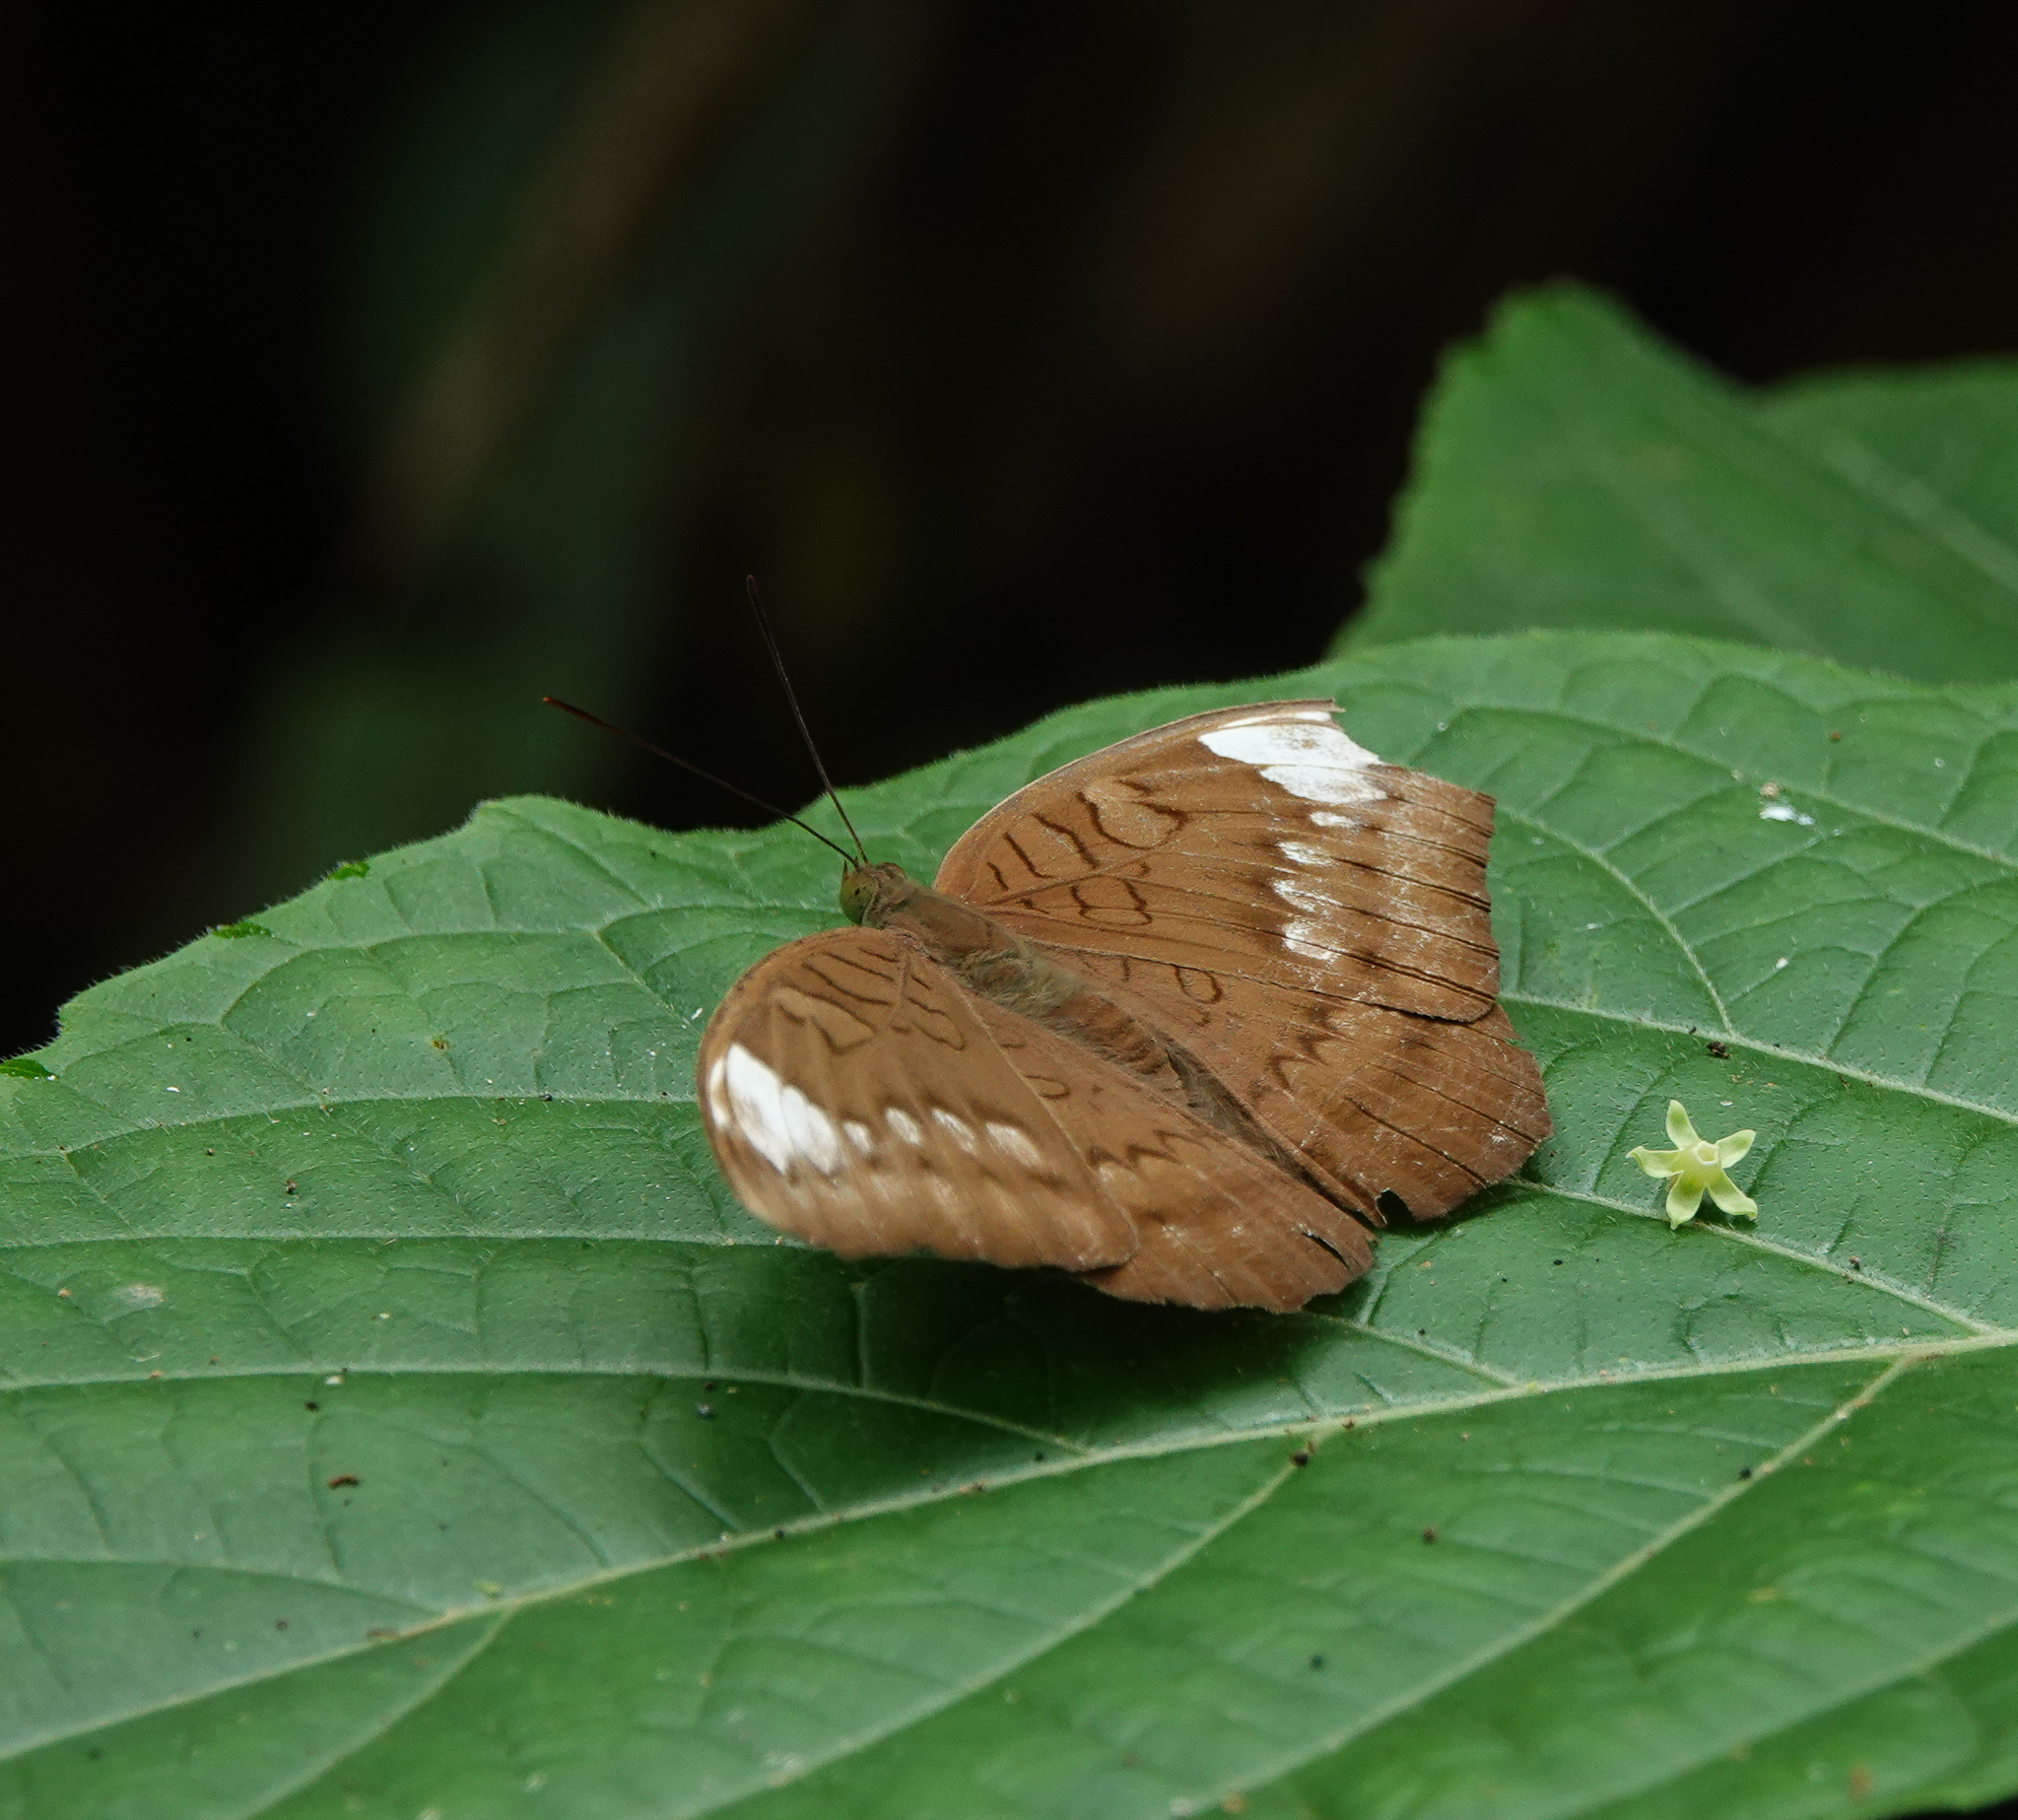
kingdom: Animalia
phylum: Arthropoda
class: Insecta
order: Lepidoptera
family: Nymphalidae
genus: Tanaecia
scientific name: Tanaecia julii
